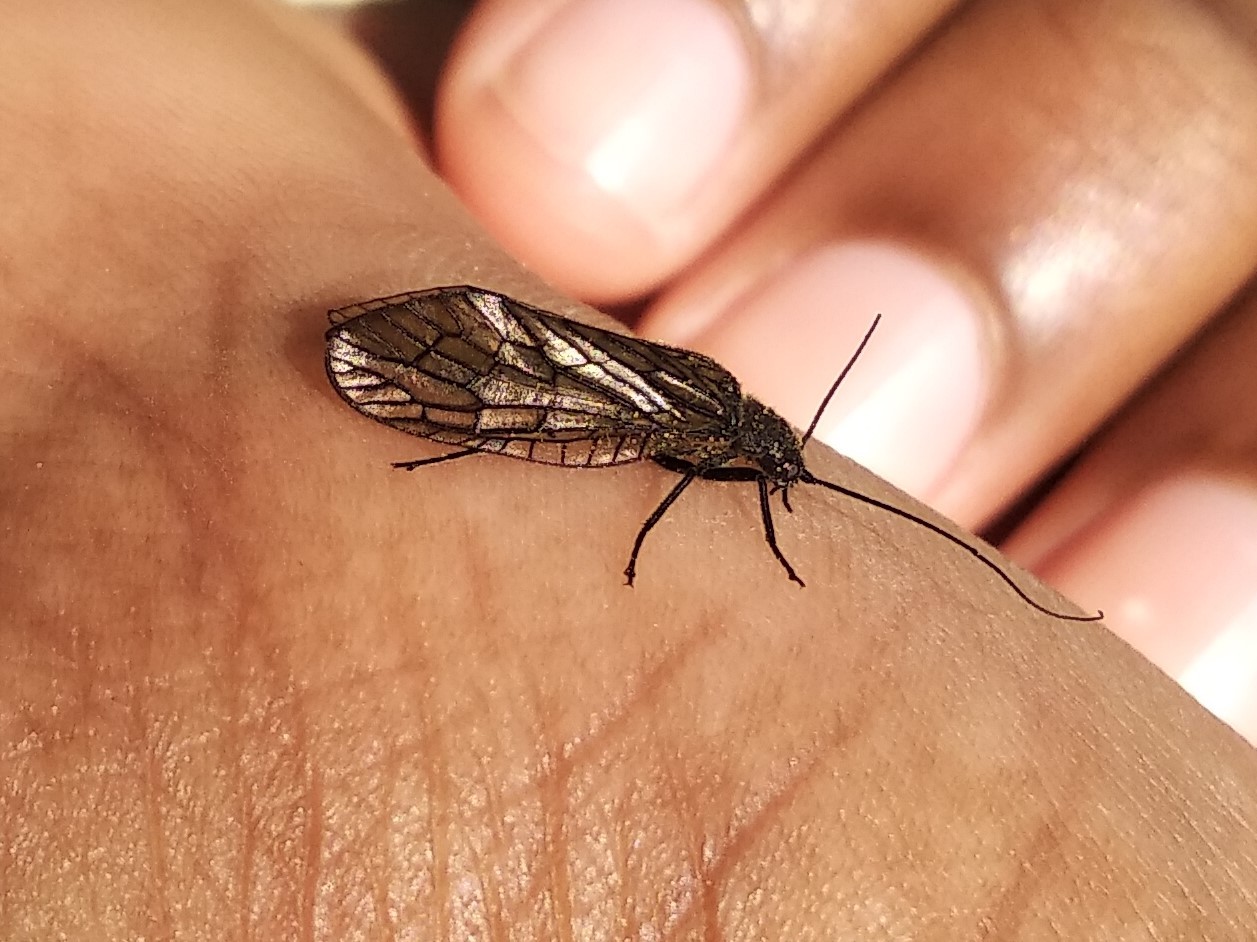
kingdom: Animalia
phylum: Arthropoda
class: Insecta
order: Megaloptera
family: Sialidae
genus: Sialis
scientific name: Sialis
